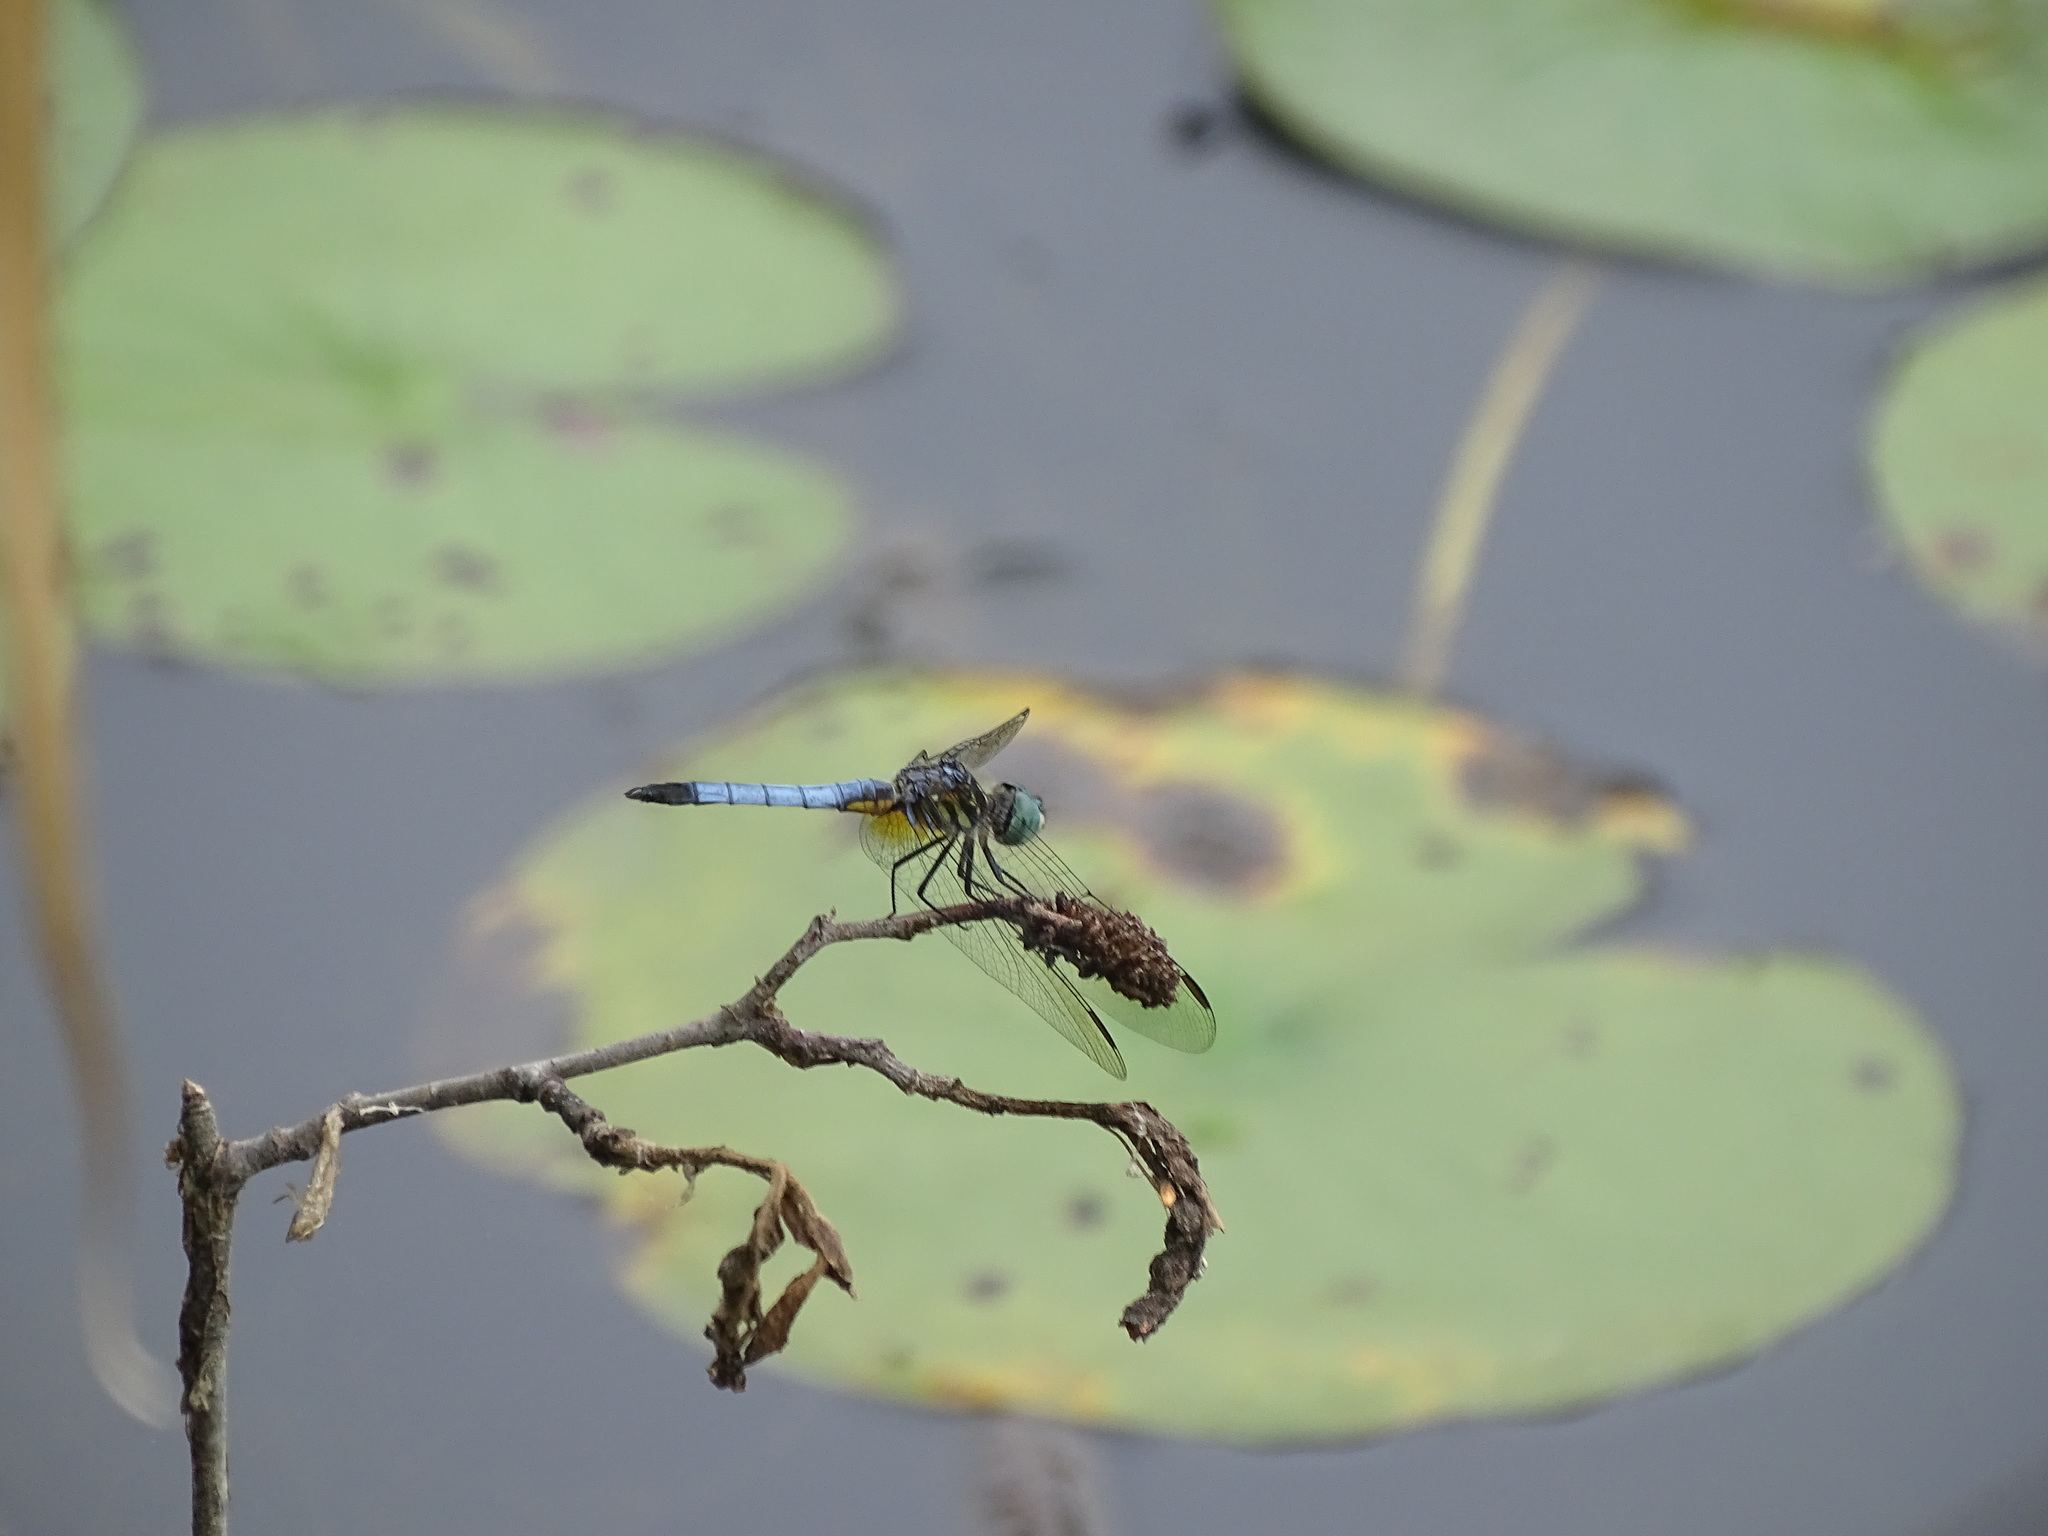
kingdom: Animalia
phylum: Arthropoda
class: Insecta
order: Odonata
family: Libellulidae
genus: Pachydiplax
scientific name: Pachydiplax longipennis
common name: Blue dasher
